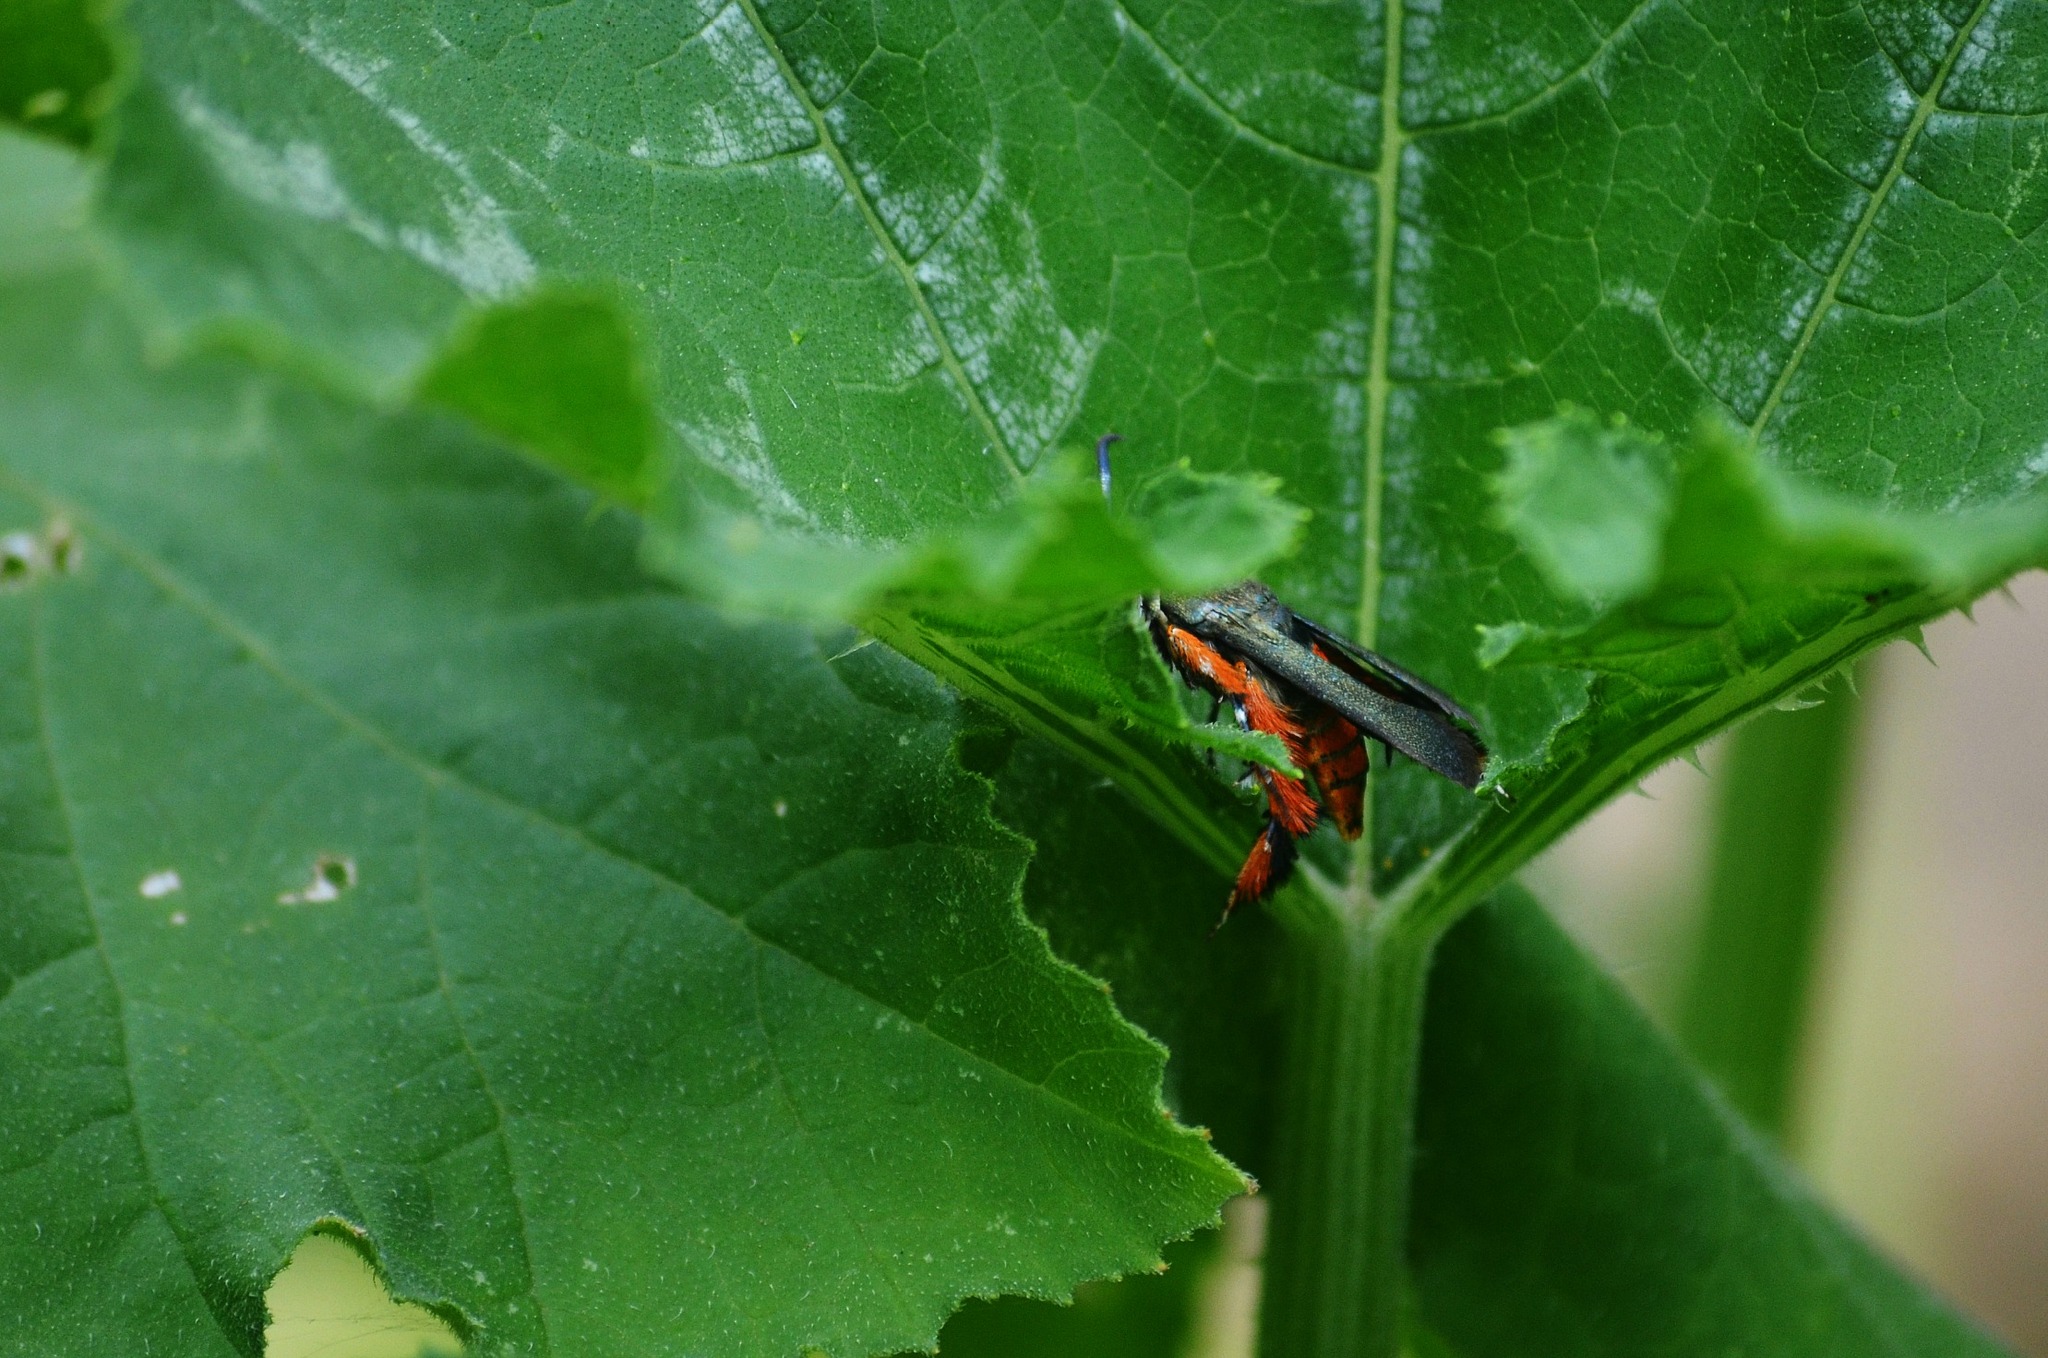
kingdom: Animalia
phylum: Arthropoda
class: Insecta
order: Lepidoptera
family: Sesiidae
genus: Eichlinia
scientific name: Eichlinia cucurbitae
